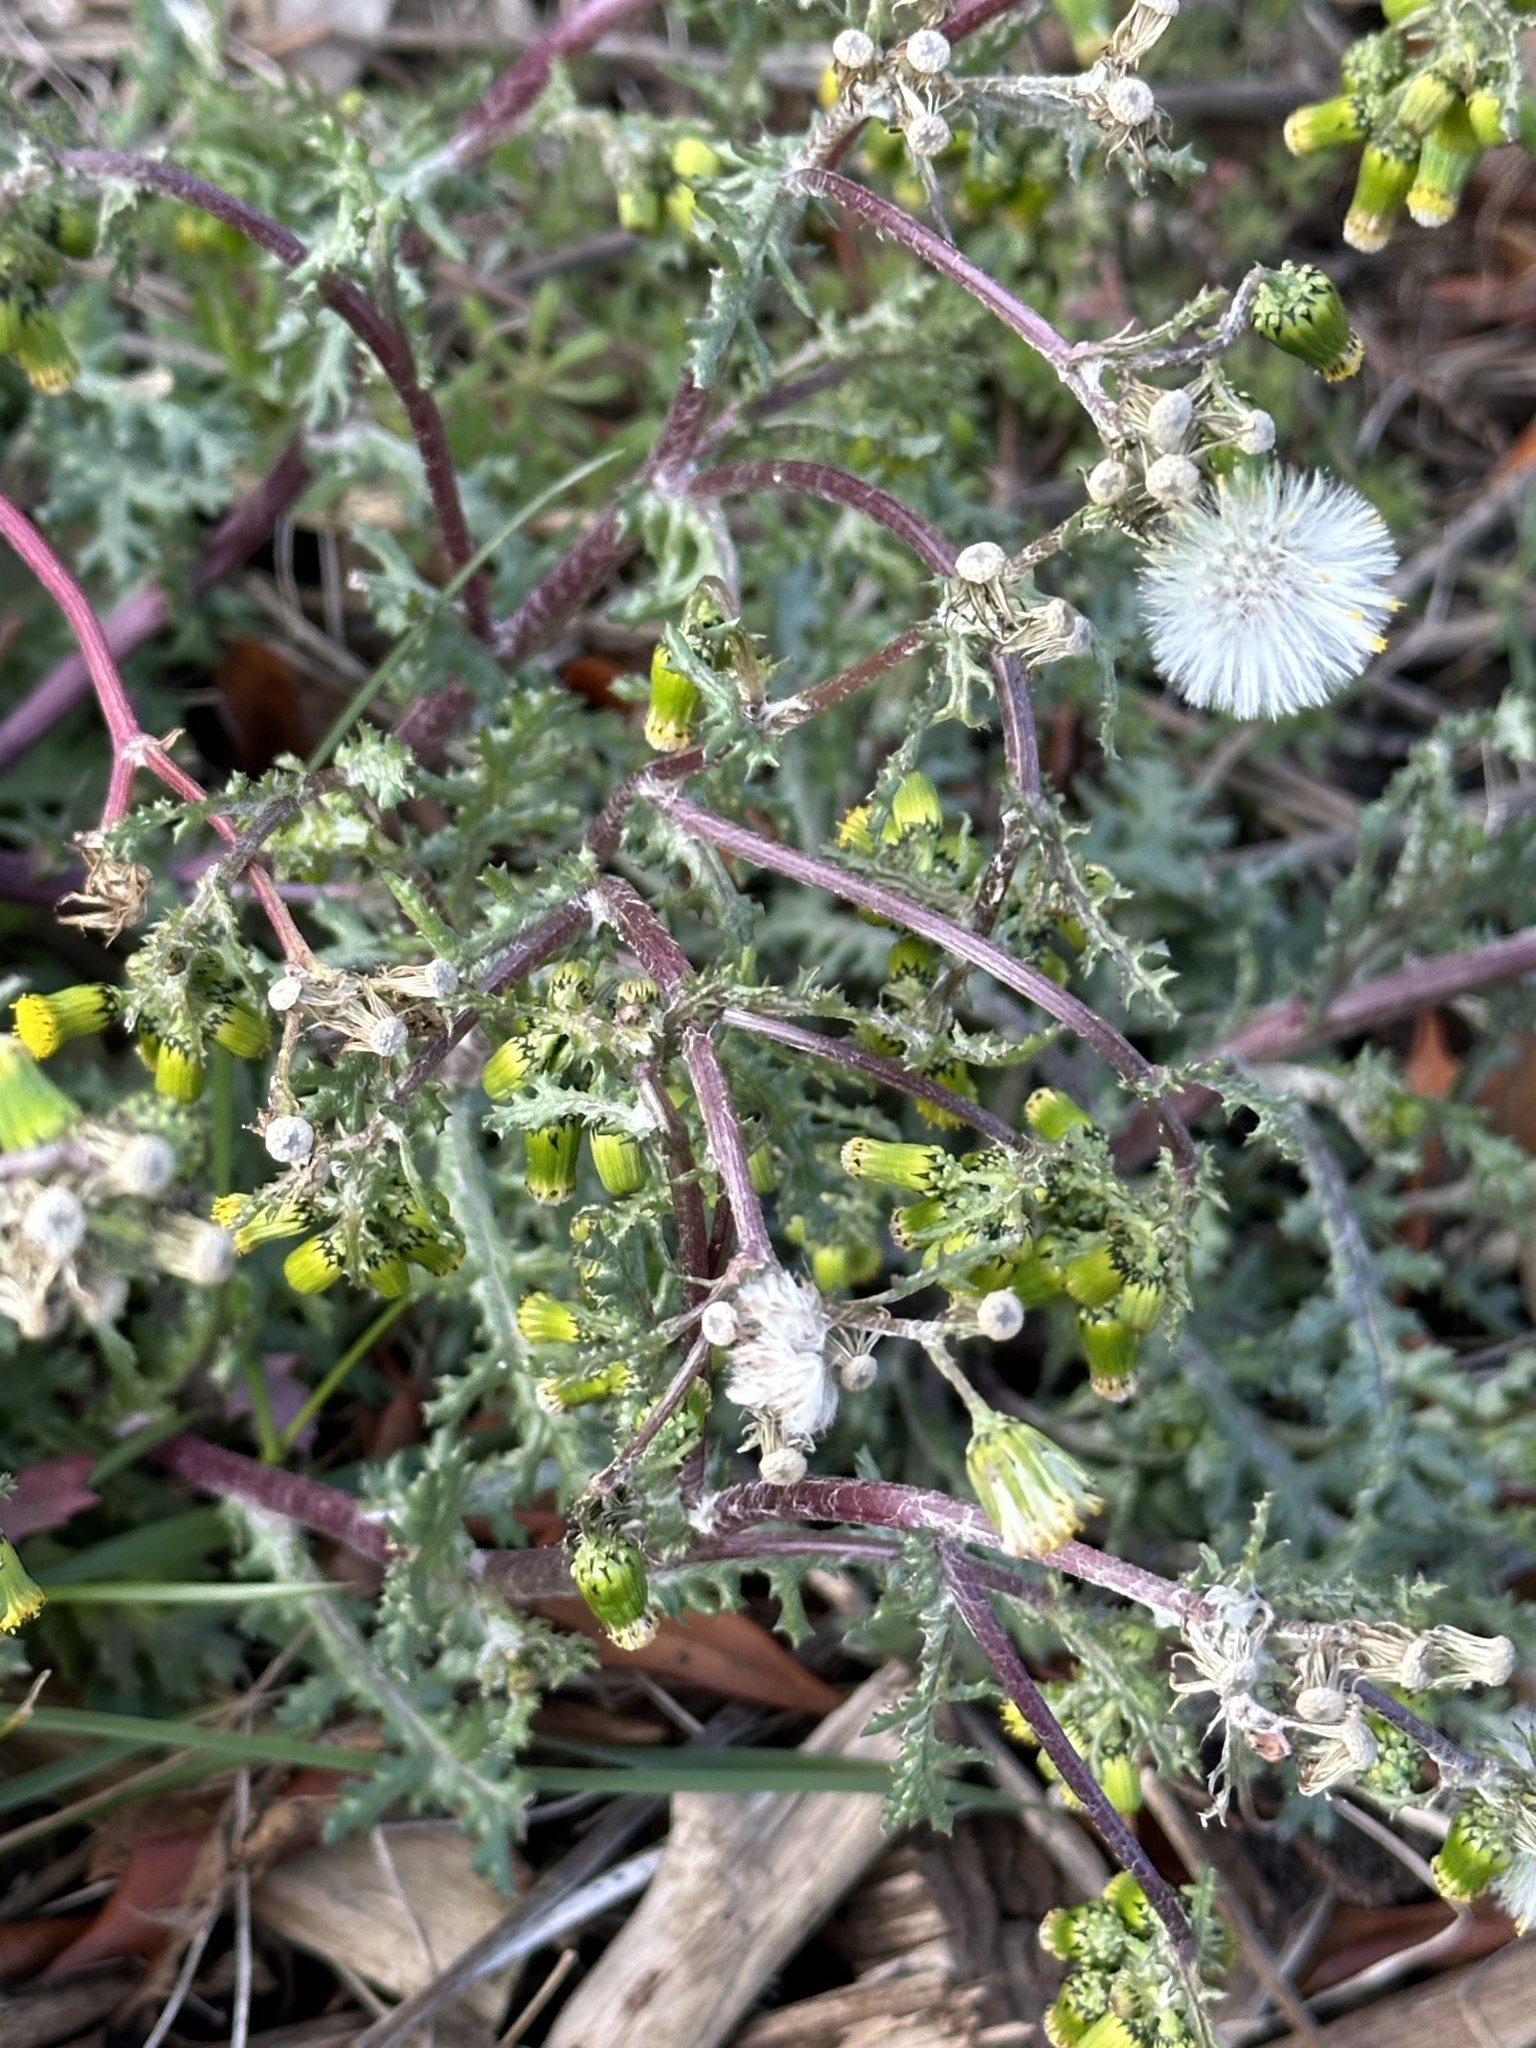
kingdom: Plantae
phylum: Tracheophyta
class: Magnoliopsida
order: Asterales
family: Asteraceae
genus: Senecio
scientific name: Senecio vulgaris
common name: Old-man-in-the-spring
